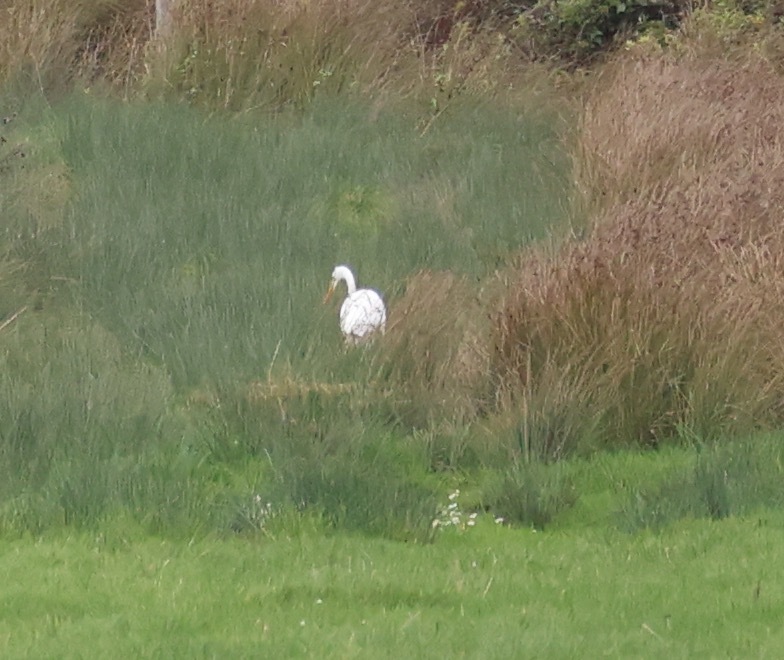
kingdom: Animalia
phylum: Chordata
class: Aves
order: Pelecaniformes
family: Ardeidae
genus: Ardea
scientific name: Ardea alba
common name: Great egret
